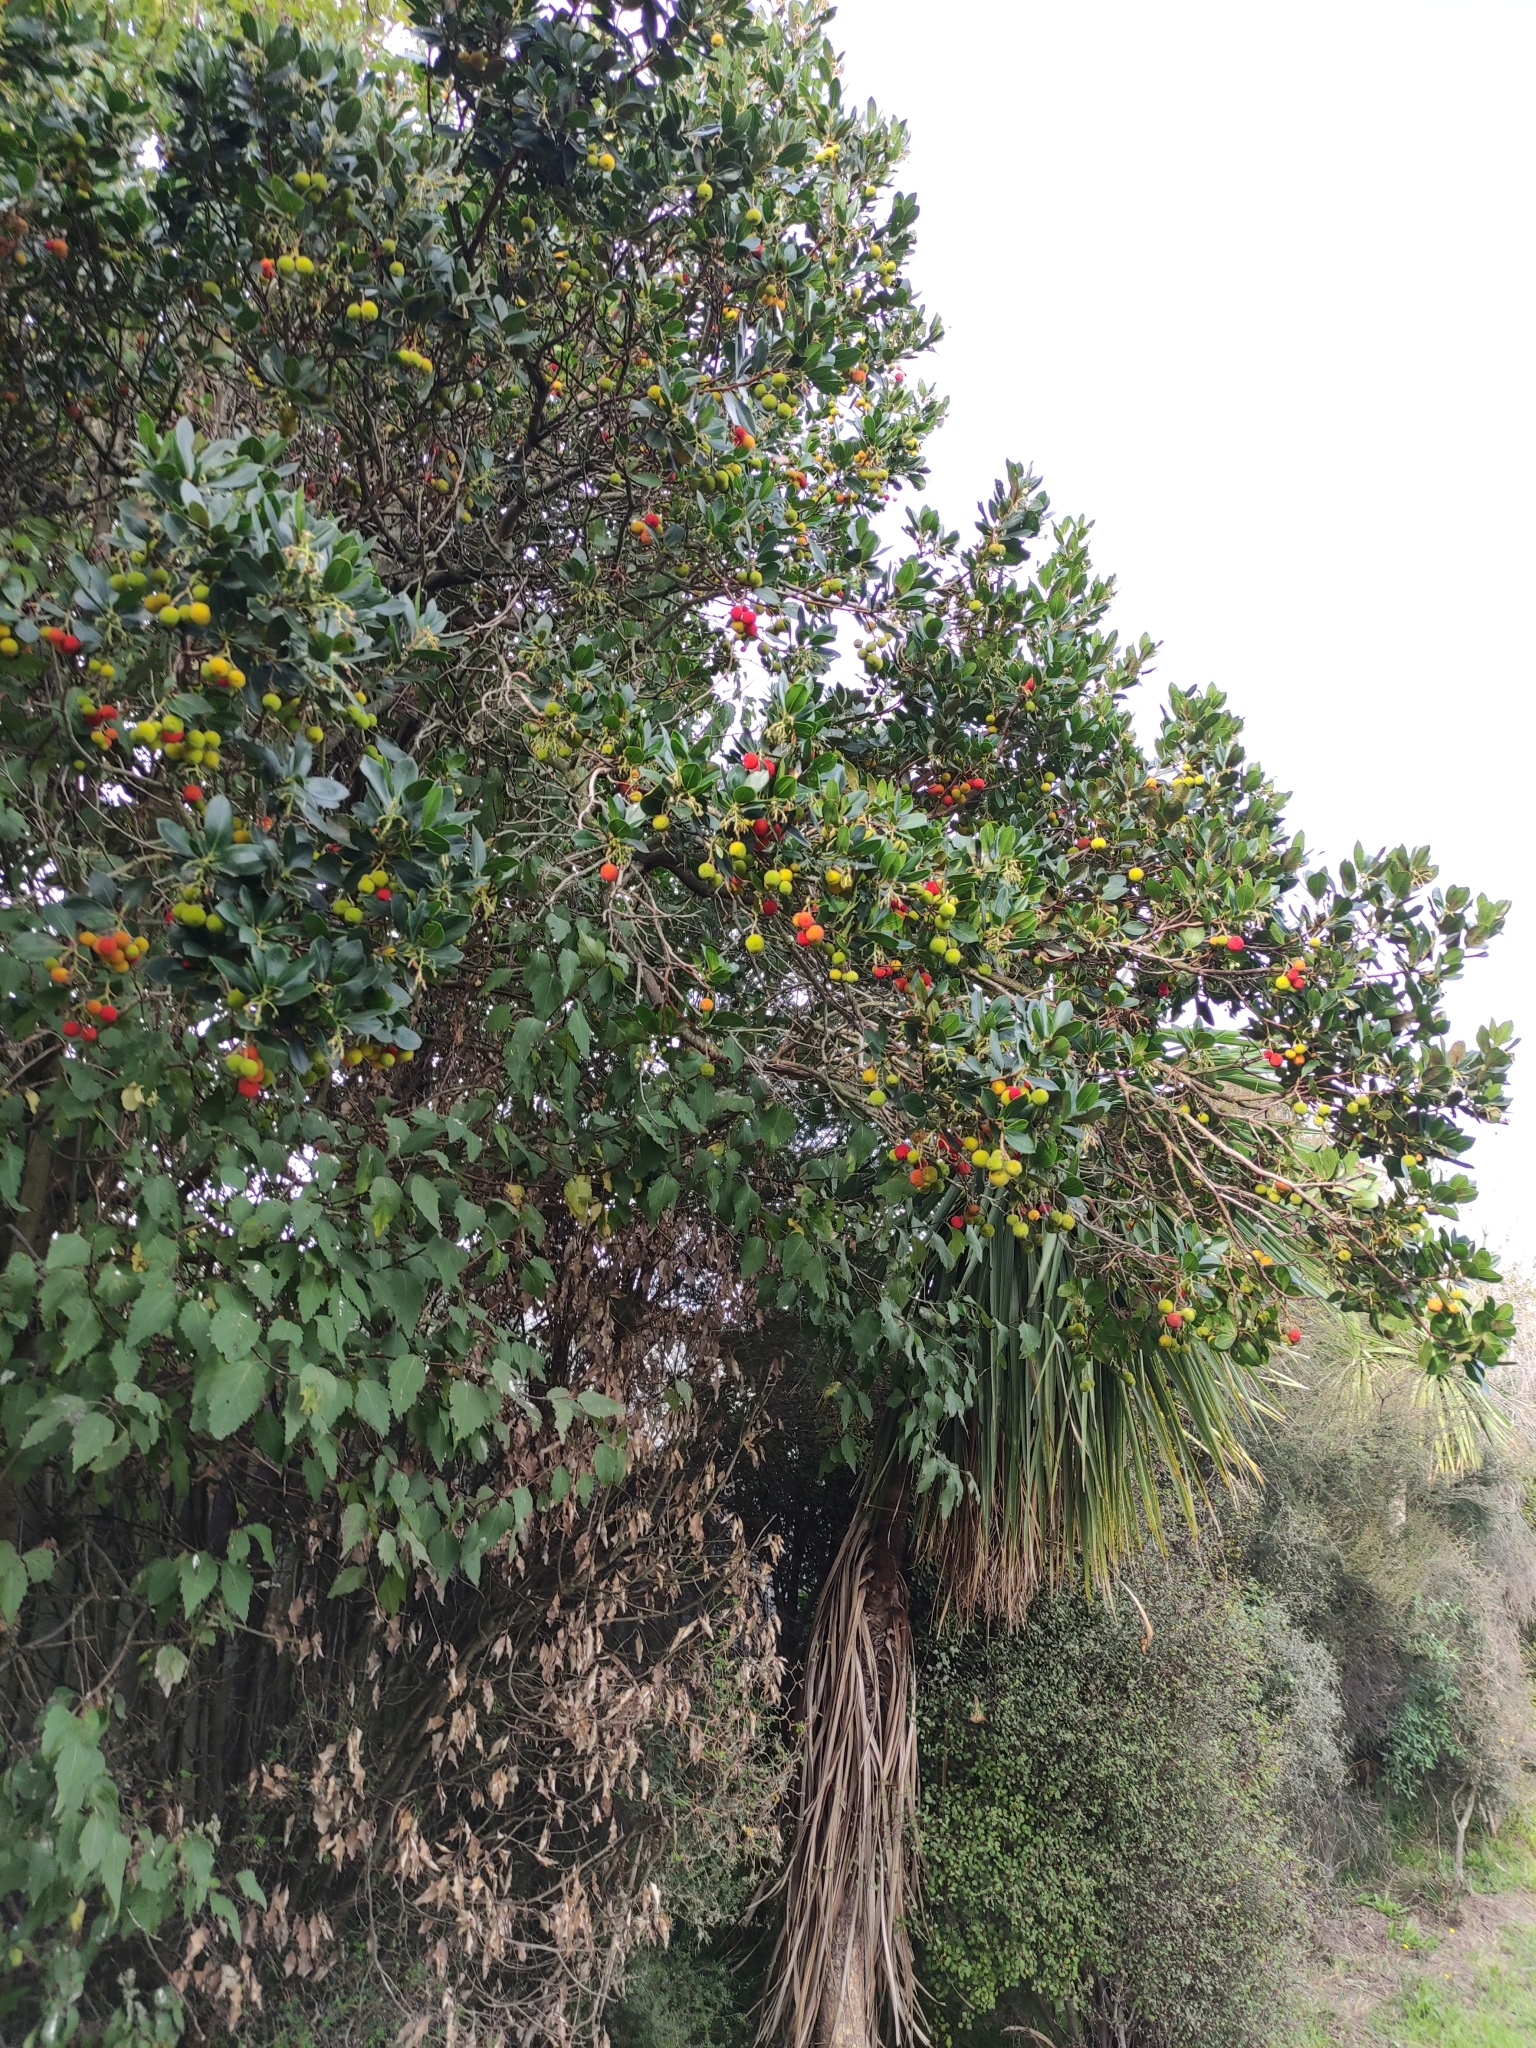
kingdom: Plantae
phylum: Tracheophyta
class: Magnoliopsida
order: Ericales
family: Ericaceae
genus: Arbutus
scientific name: Arbutus unedo
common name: Strawberry-tree
